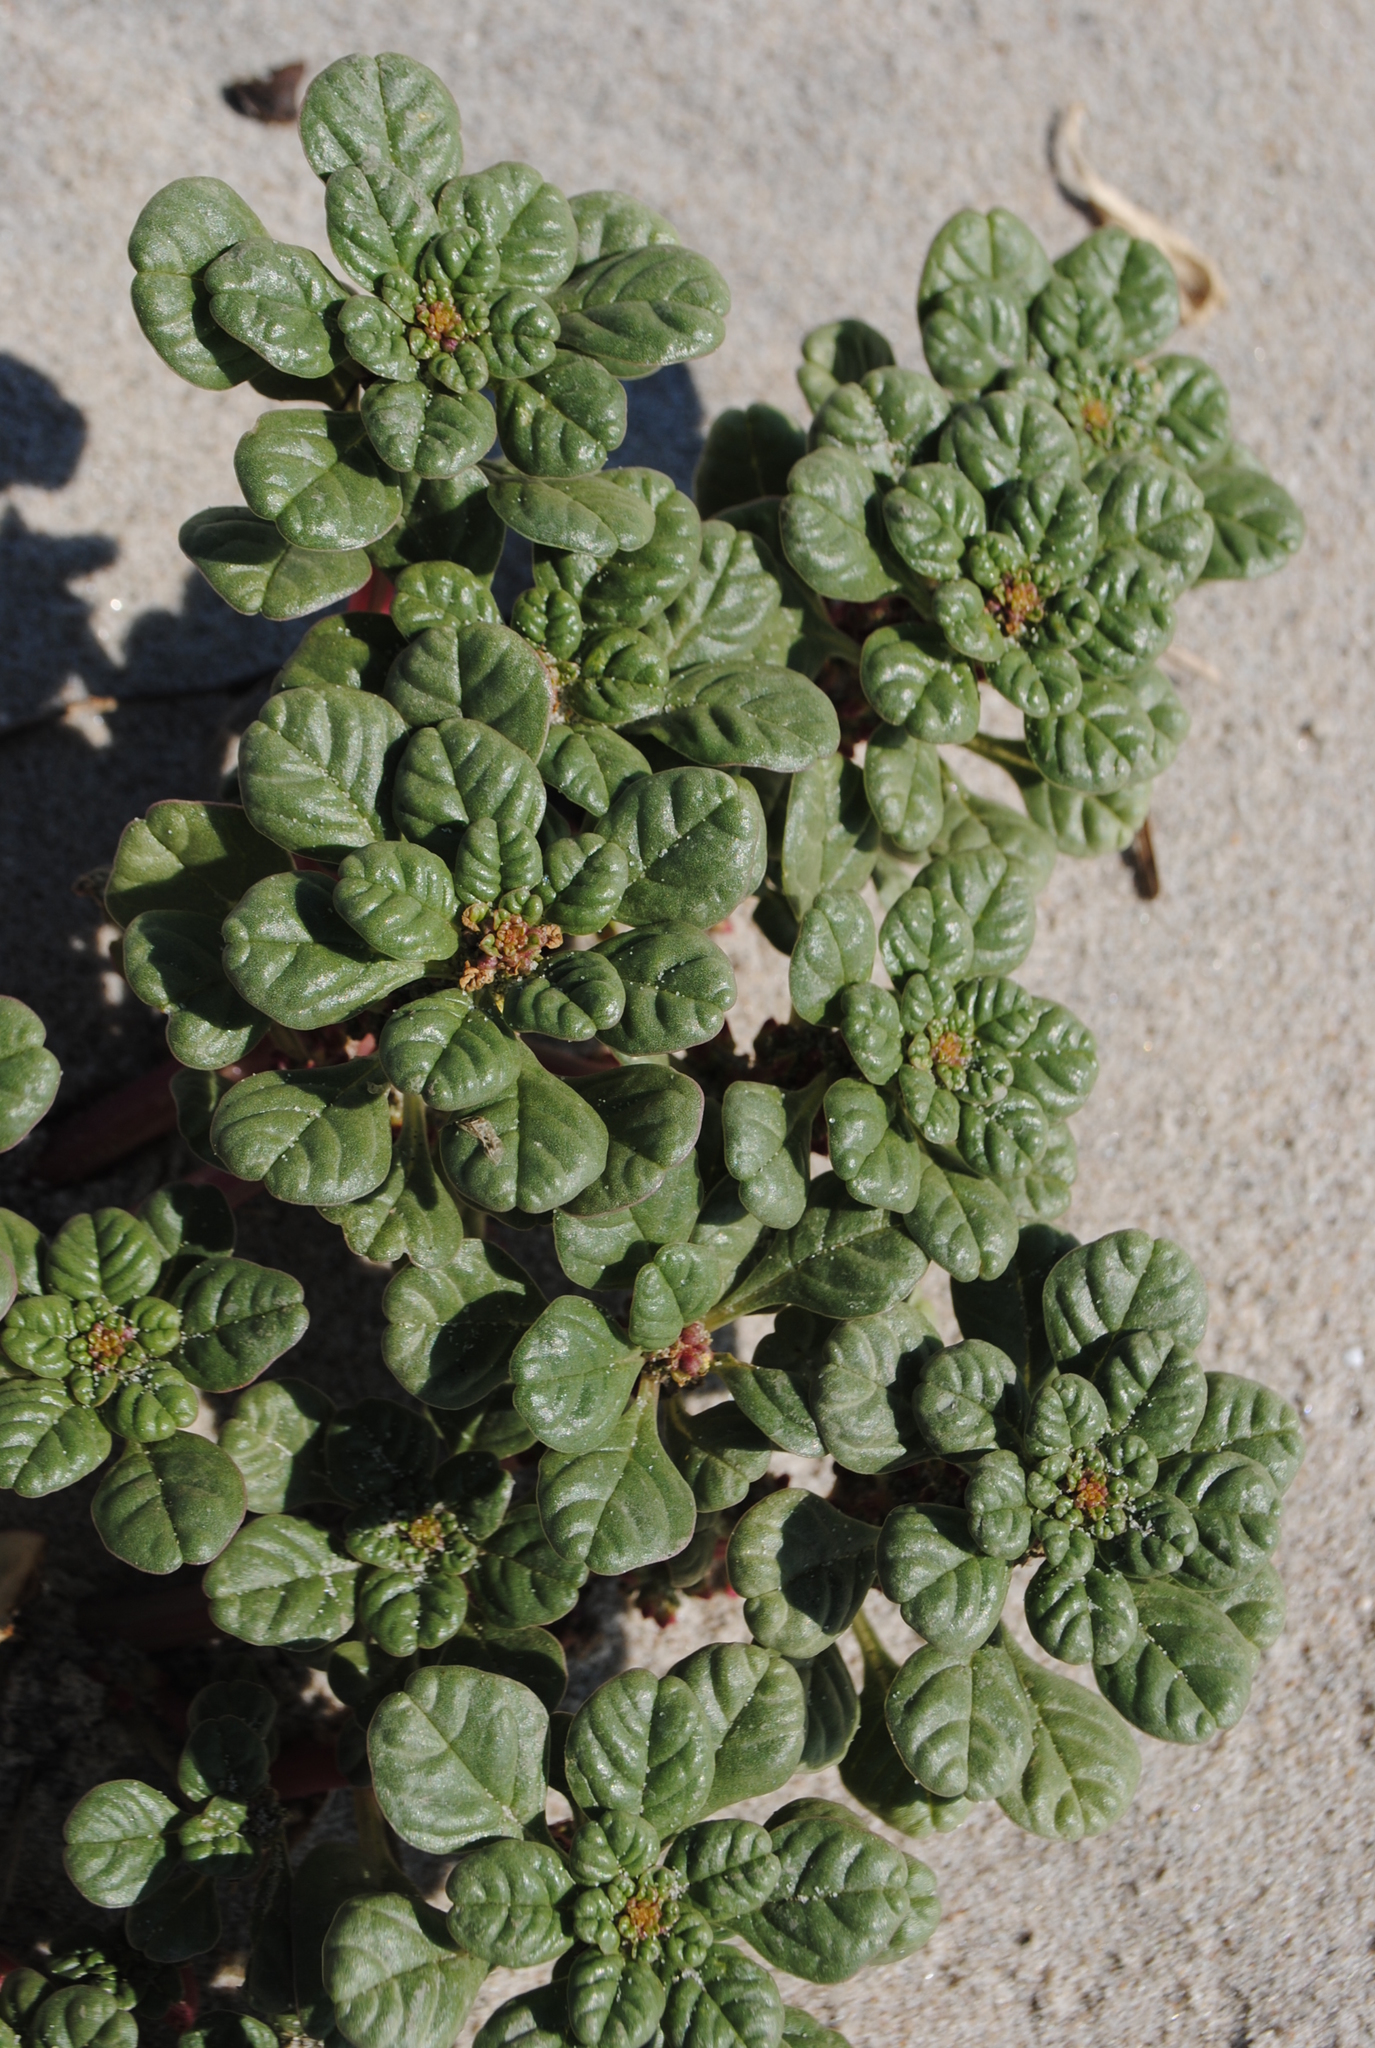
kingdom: Plantae
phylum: Tracheophyta
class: Magnoliopsida
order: Caryophyllales
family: Amaranthaceae
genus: Amaranthus
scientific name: Amaranthus pumilus
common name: Coast amaranth
